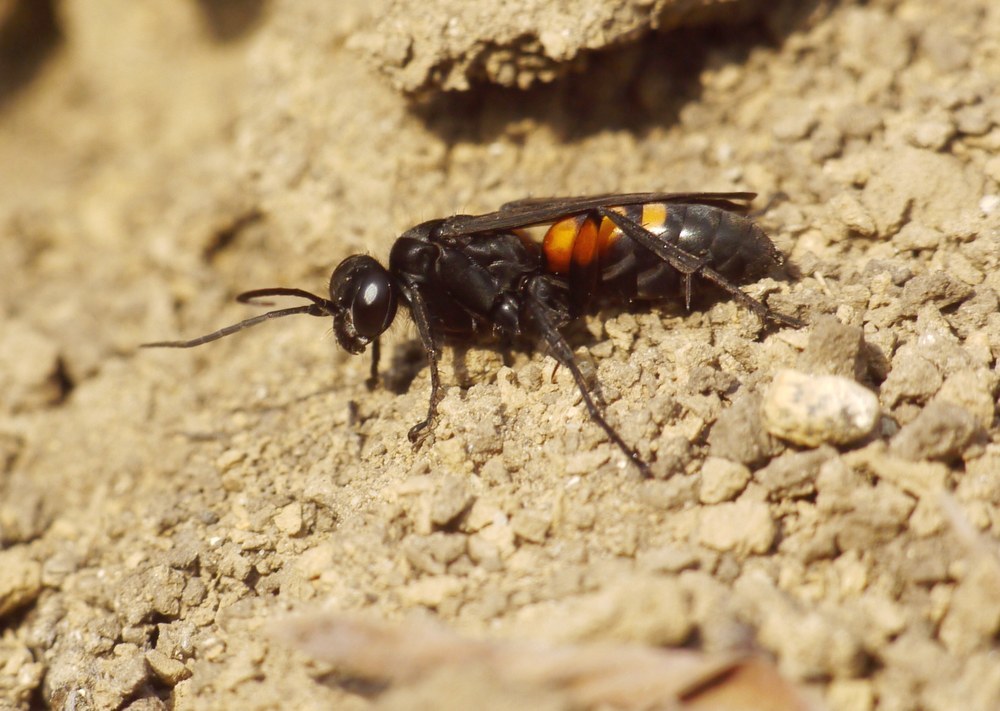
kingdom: Animalia
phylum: Arthropoda
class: Insecta
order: Hymenoptera
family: Pompilidae
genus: Anoplius
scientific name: Anoplius viaticus
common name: Black banded spider wasp
